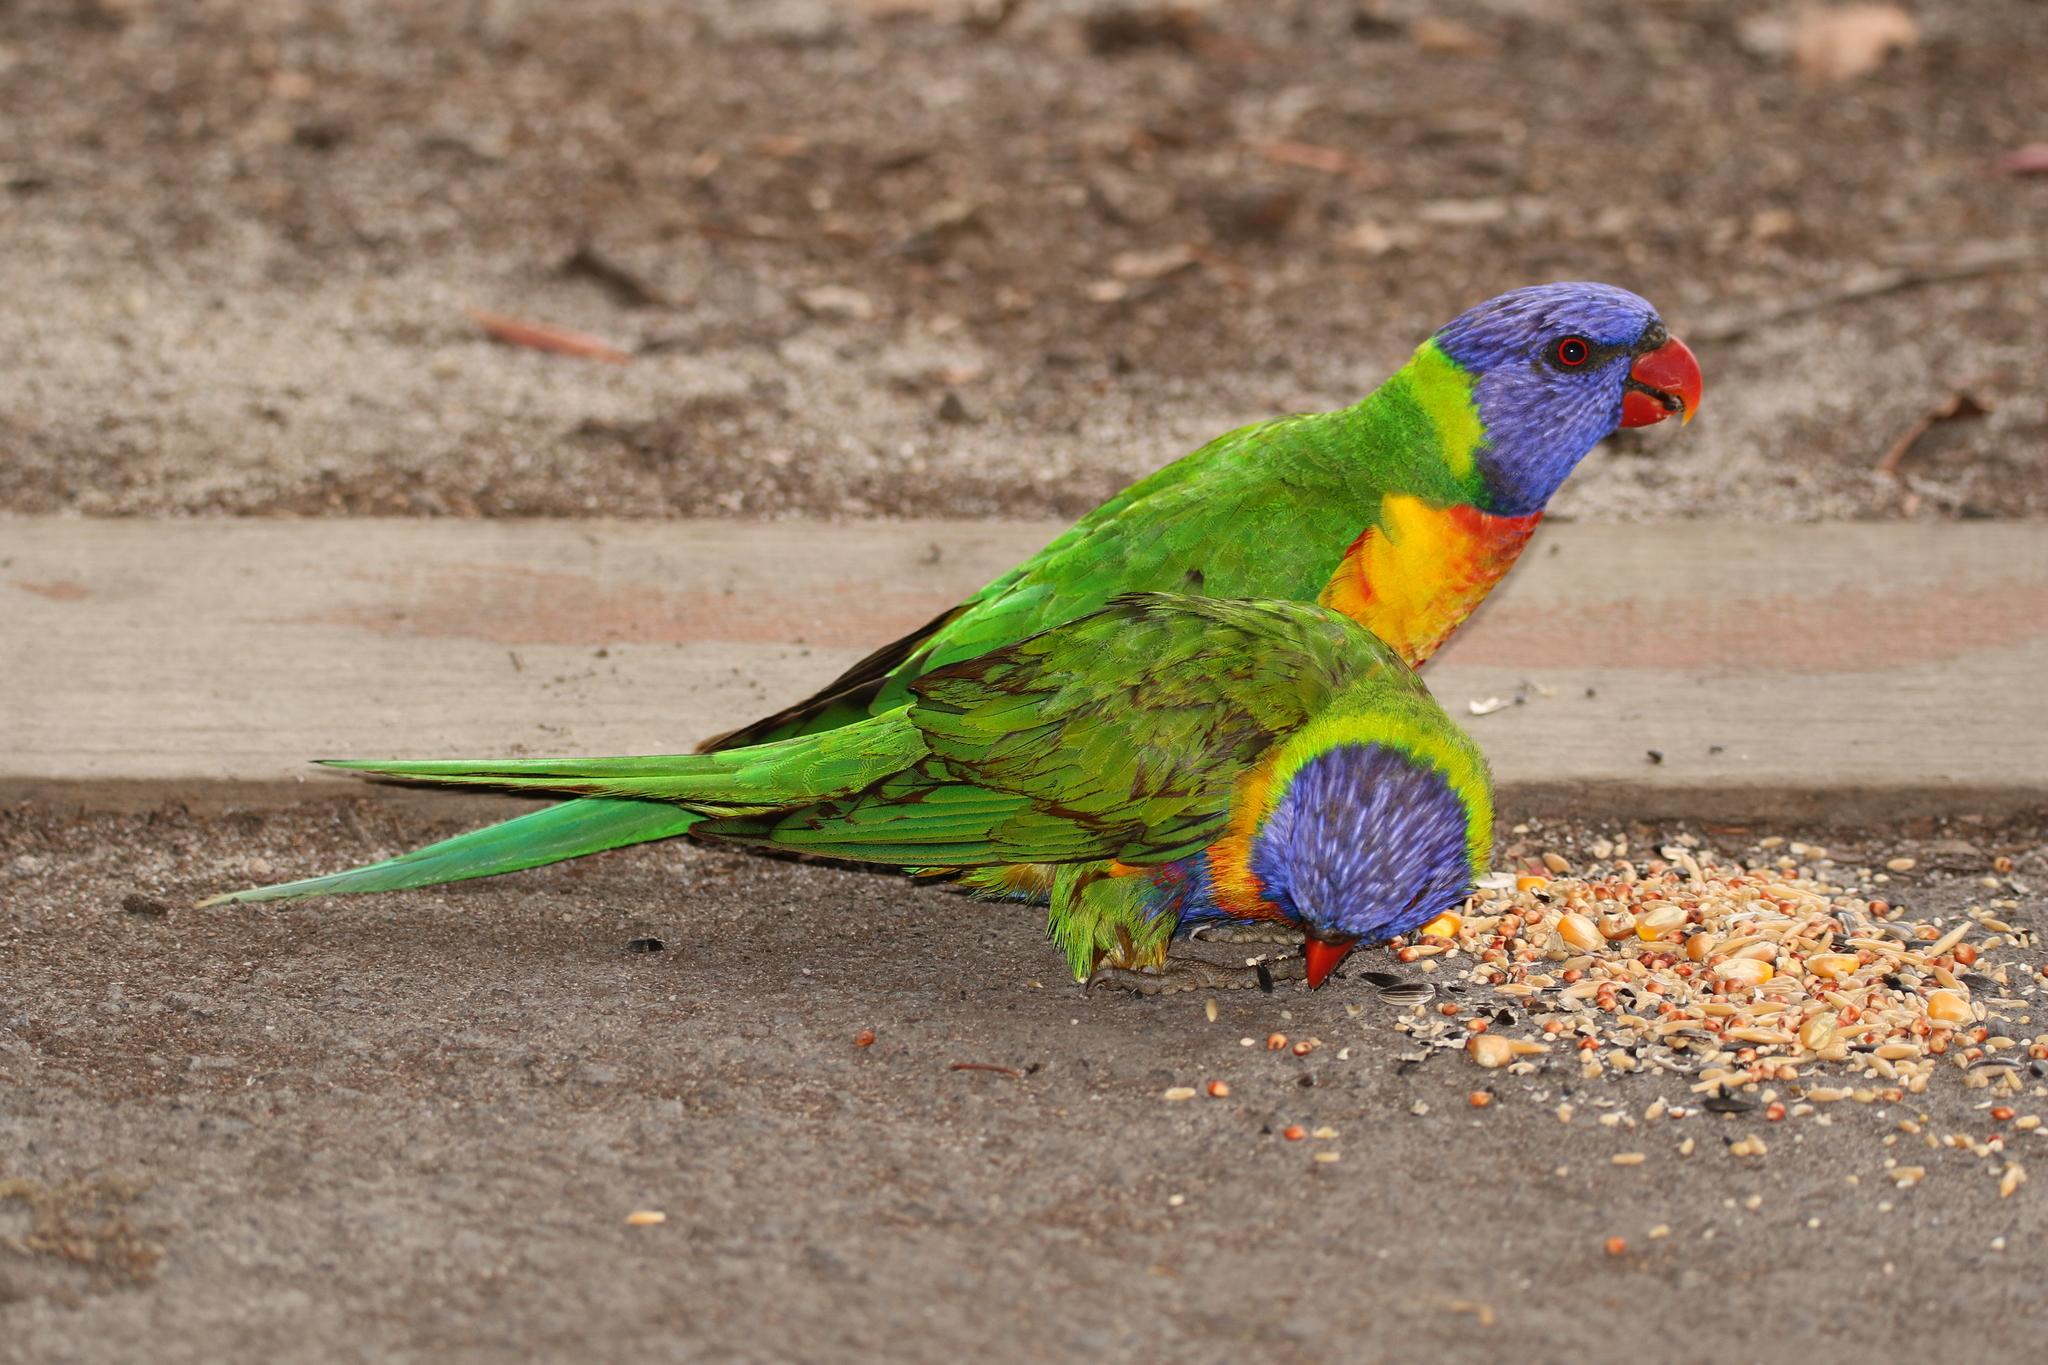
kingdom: Animalia
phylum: Chordata
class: Aves
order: Psittaciformes
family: Psittacidae
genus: Trichoglossus
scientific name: Trichoglossus haematodus
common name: Coconut lorikeet
